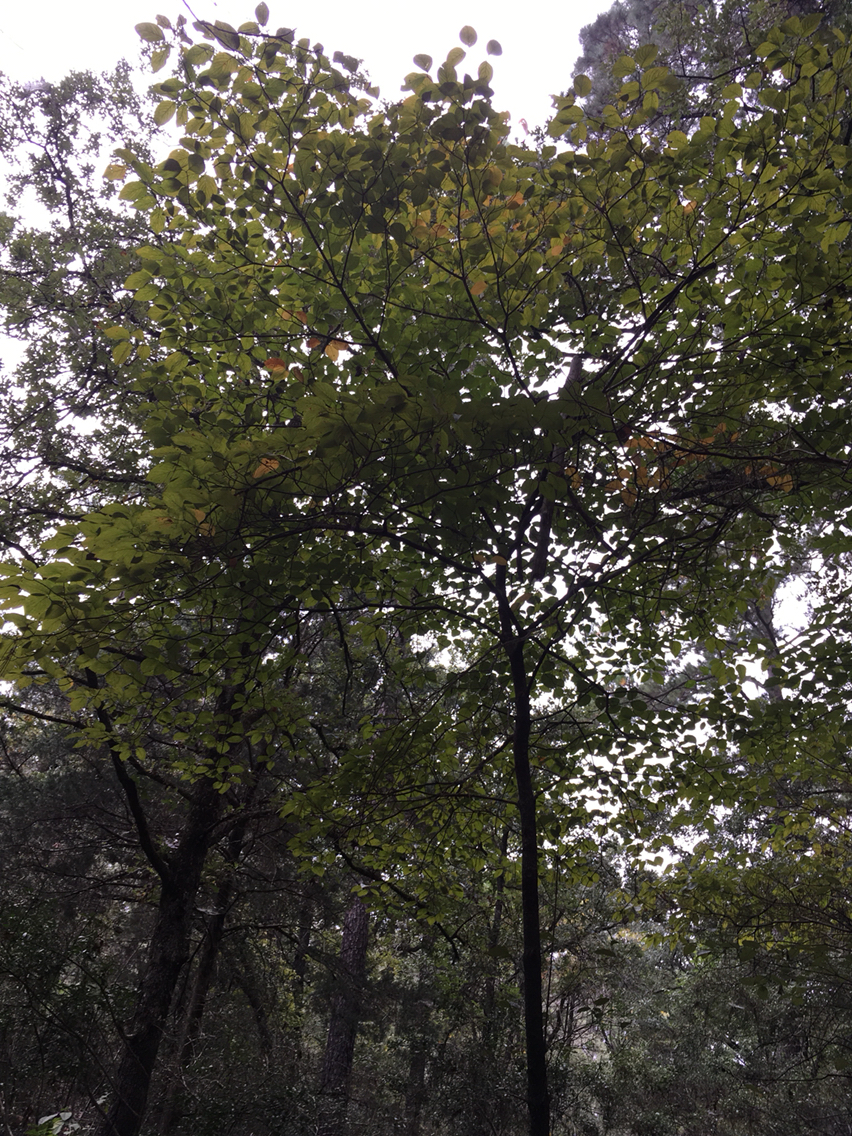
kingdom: Plantae
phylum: Tracheophyta
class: Magnoliopsida
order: Cornales
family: Cornaceae
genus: Cornus
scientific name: Cornus florida
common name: Flowering dogwood
